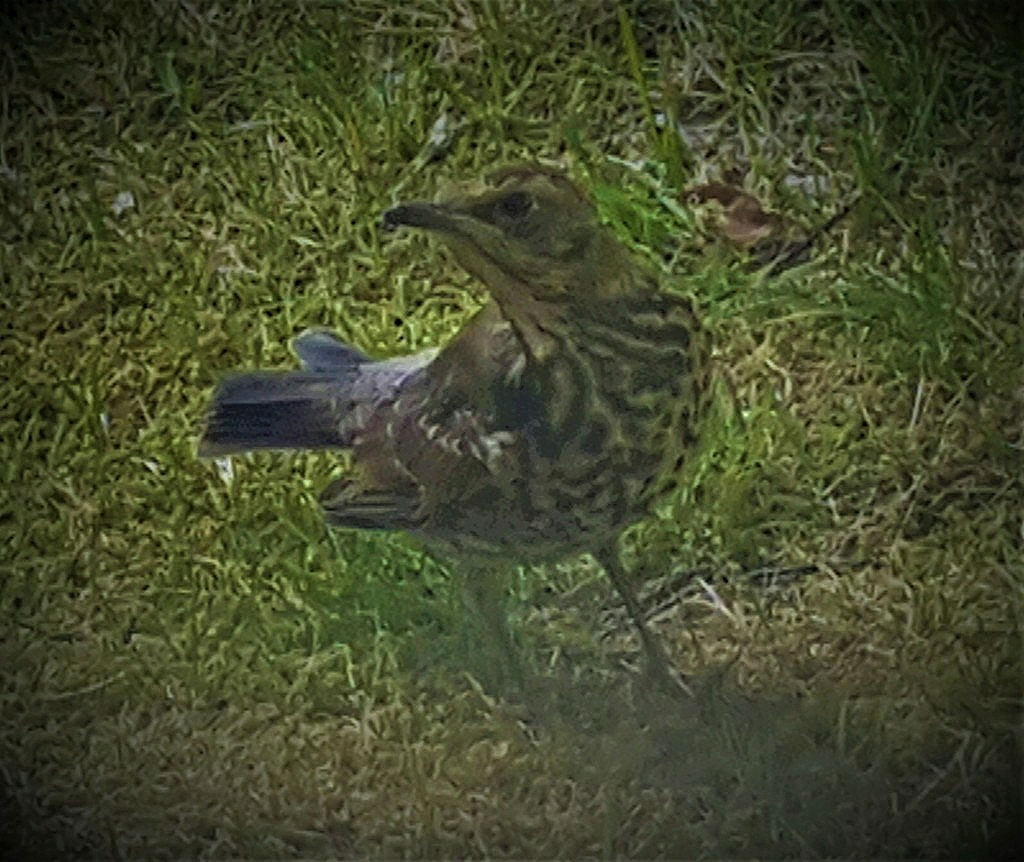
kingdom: Animalia
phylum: Chordata
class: Aves
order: Passeriformes
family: Turdidae
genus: Turdus
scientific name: Turdus philomelos
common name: Song thrush
